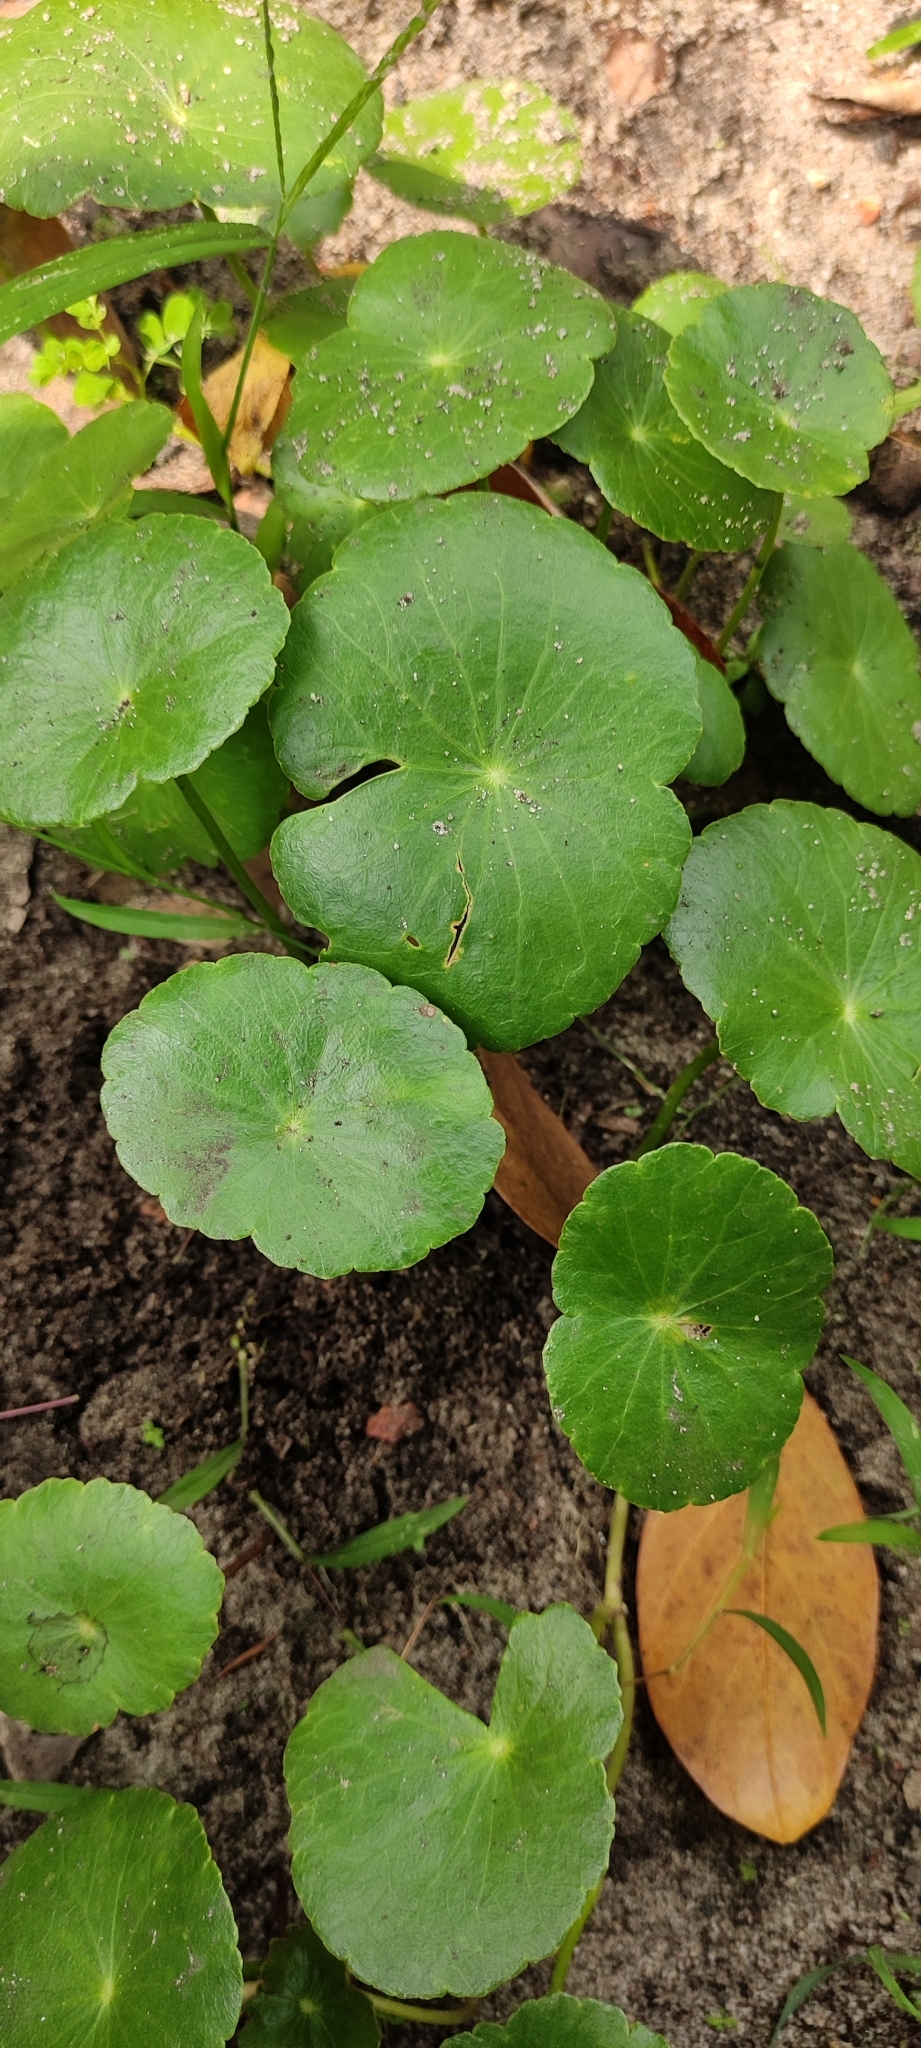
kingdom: Plantae
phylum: Tracheophyta
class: Magnoliopsida
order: Apiales
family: Araliaceae
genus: Hydrocotyle
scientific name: Hydrocotyle verticillata
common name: Whorled marshpennywort
